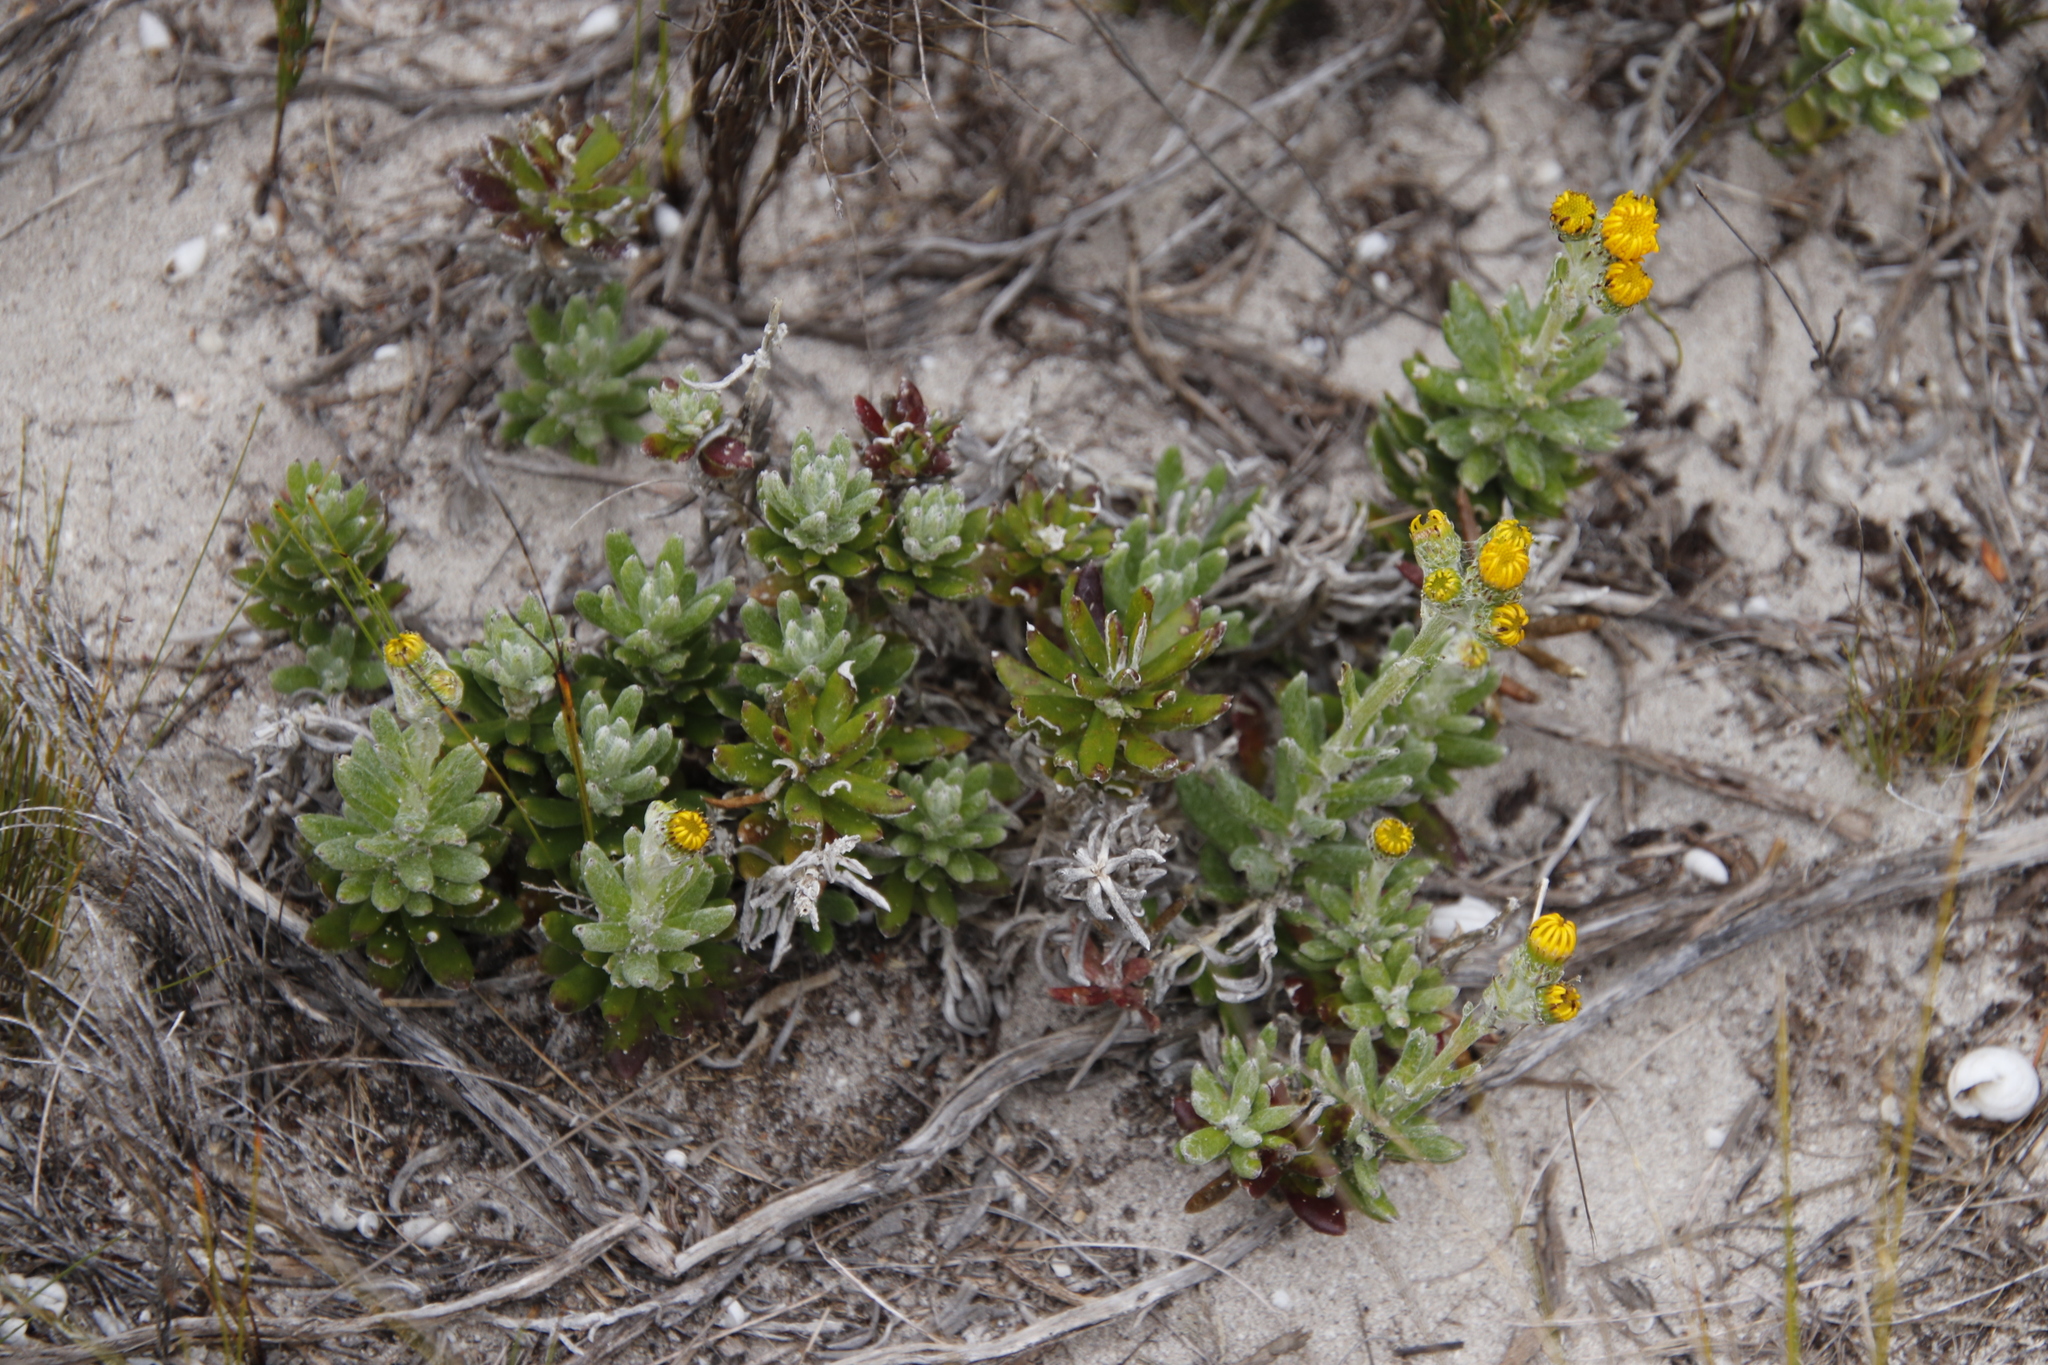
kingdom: Plantae
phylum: Tracheophyta
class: Magnoliopsida
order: Asterales
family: Asteraceae
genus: Senecio
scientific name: Senecio arniciflorus
